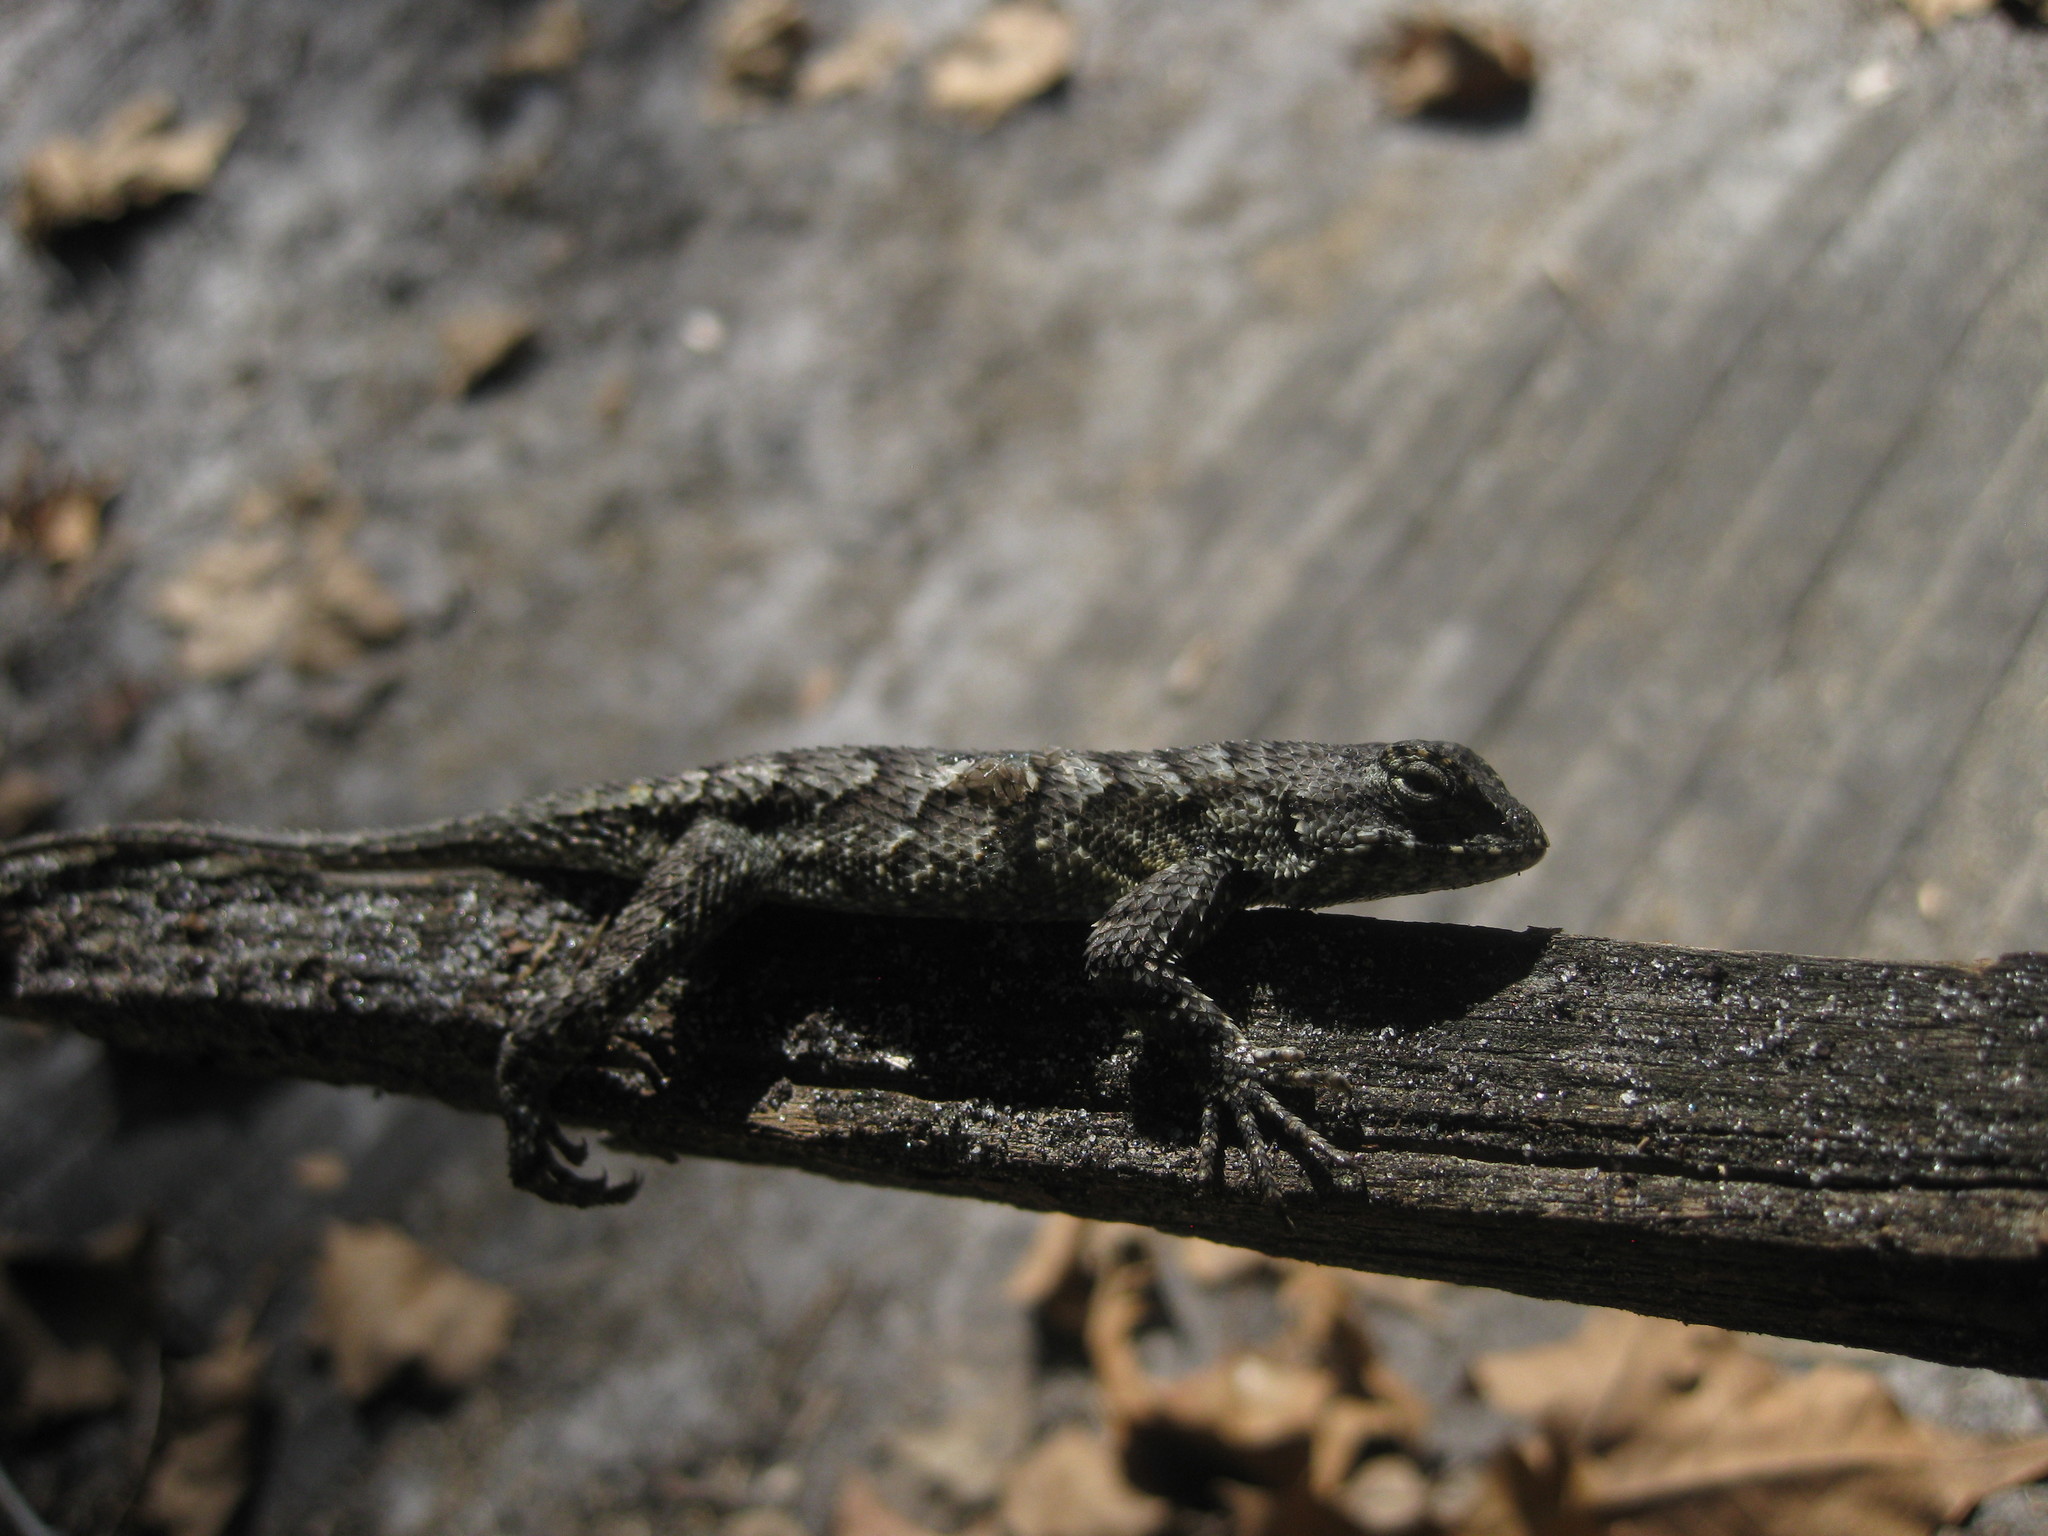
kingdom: Animalia
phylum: Chordata
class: Squamata
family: Phrynosomatidae
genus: Sceloporus
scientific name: Sceloporus undulatus
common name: Eastern fence lizard
